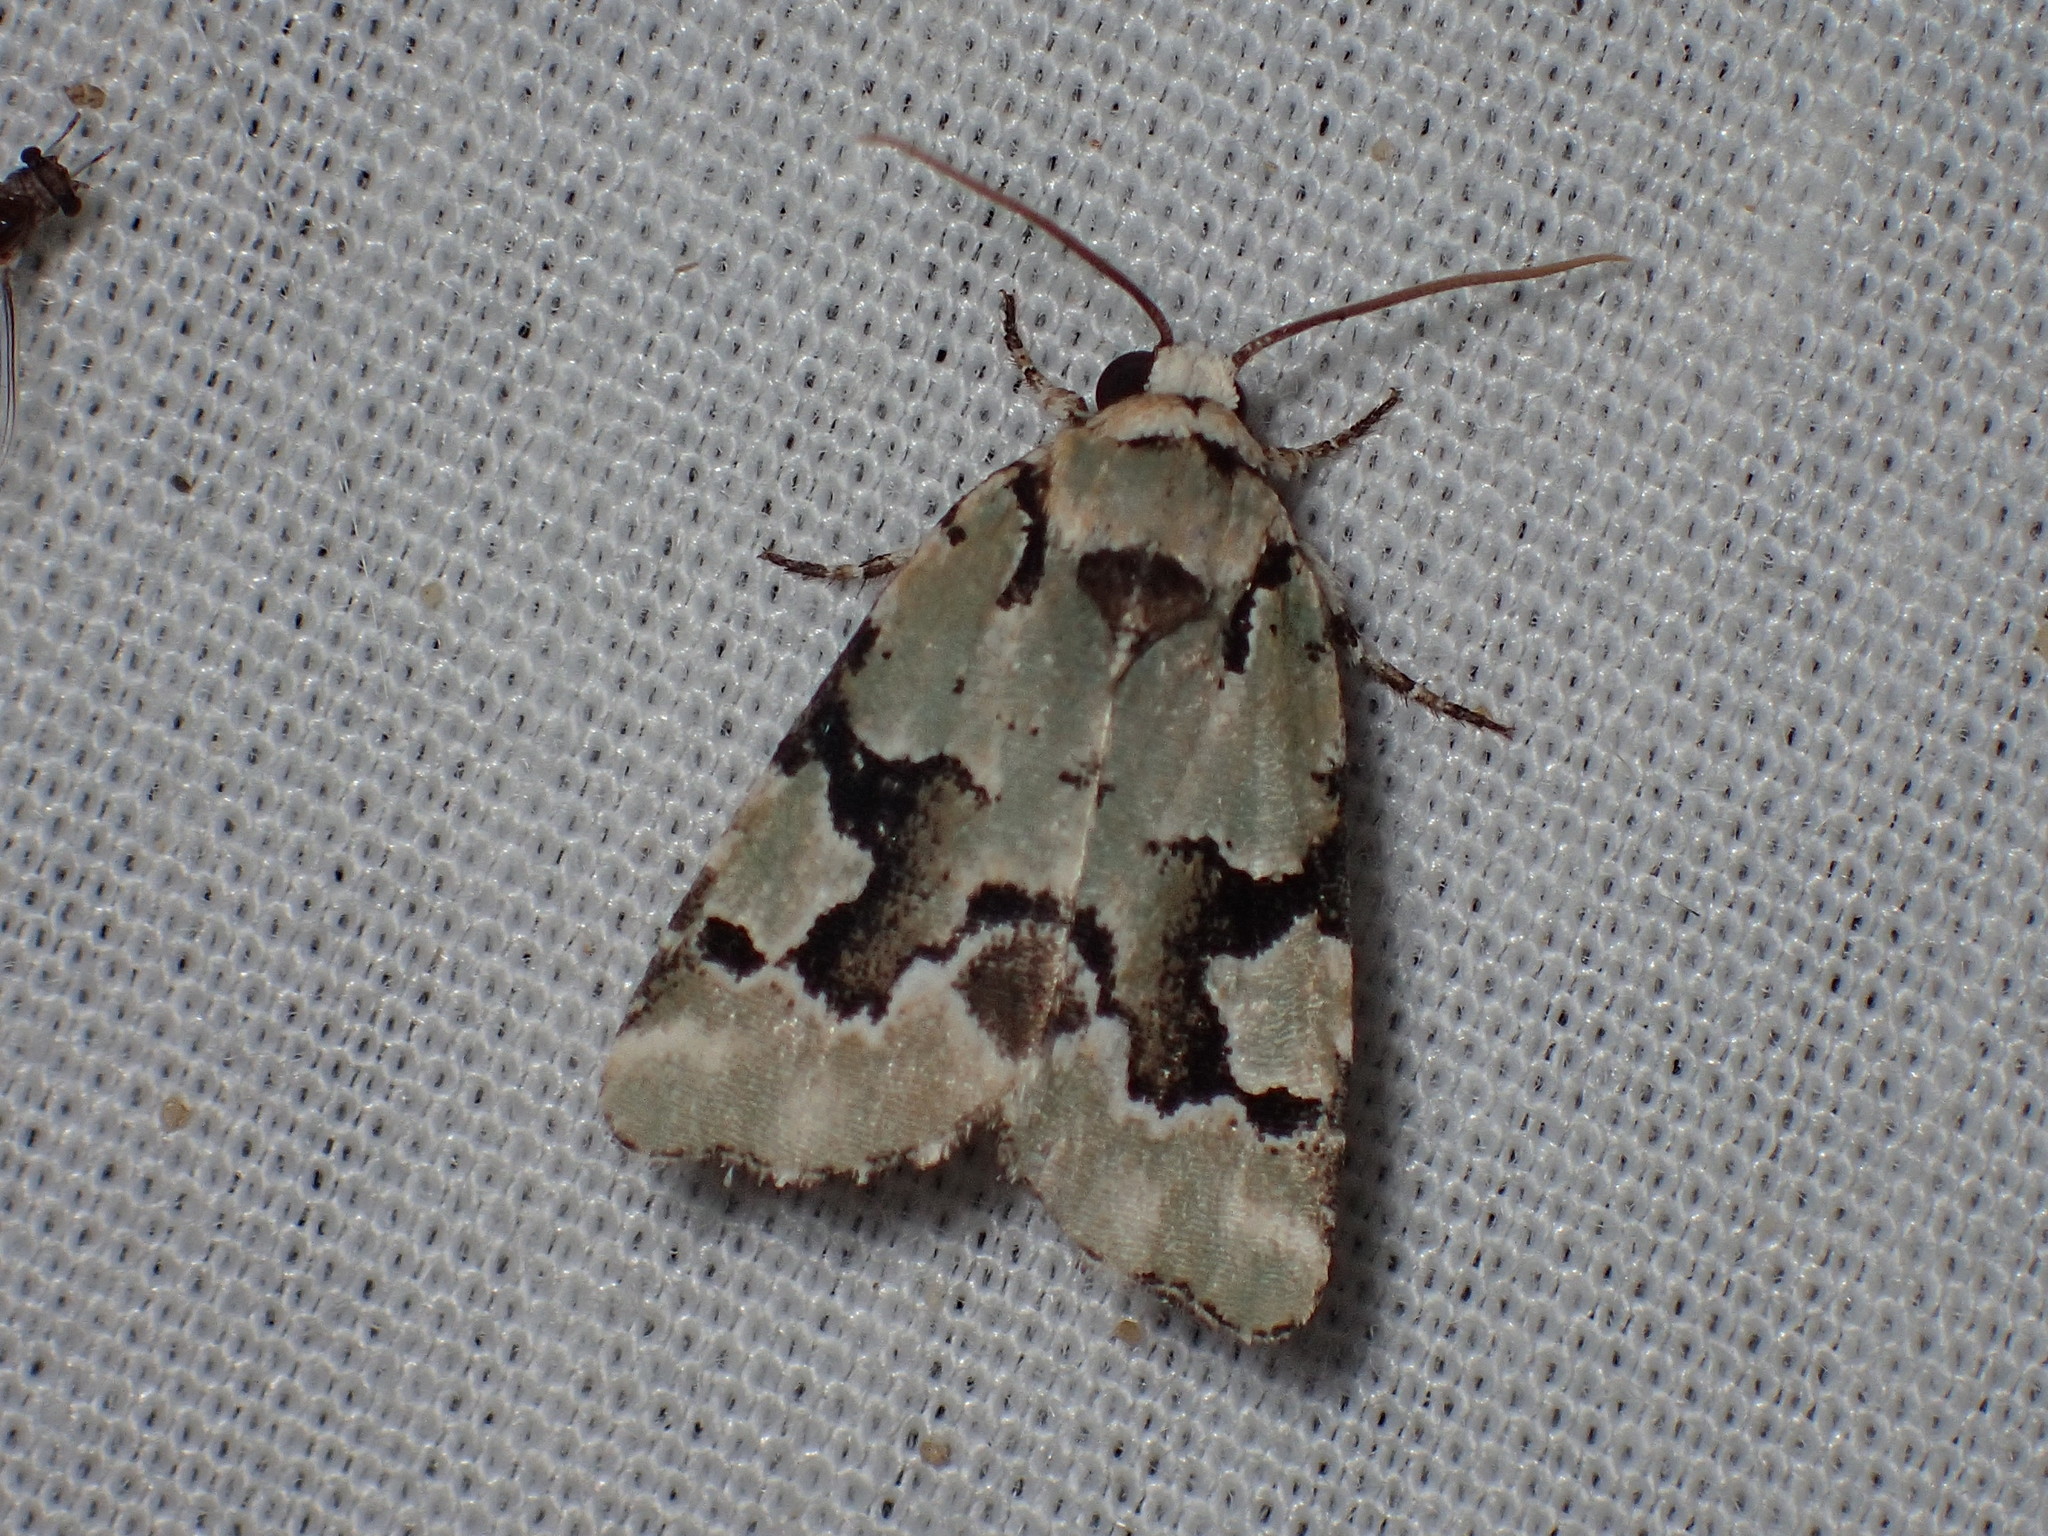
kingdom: Animalia
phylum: Arthropoda
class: Insecta
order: Lepidoptera
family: Noctuidae
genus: Emarginea
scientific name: Emarginea percara
